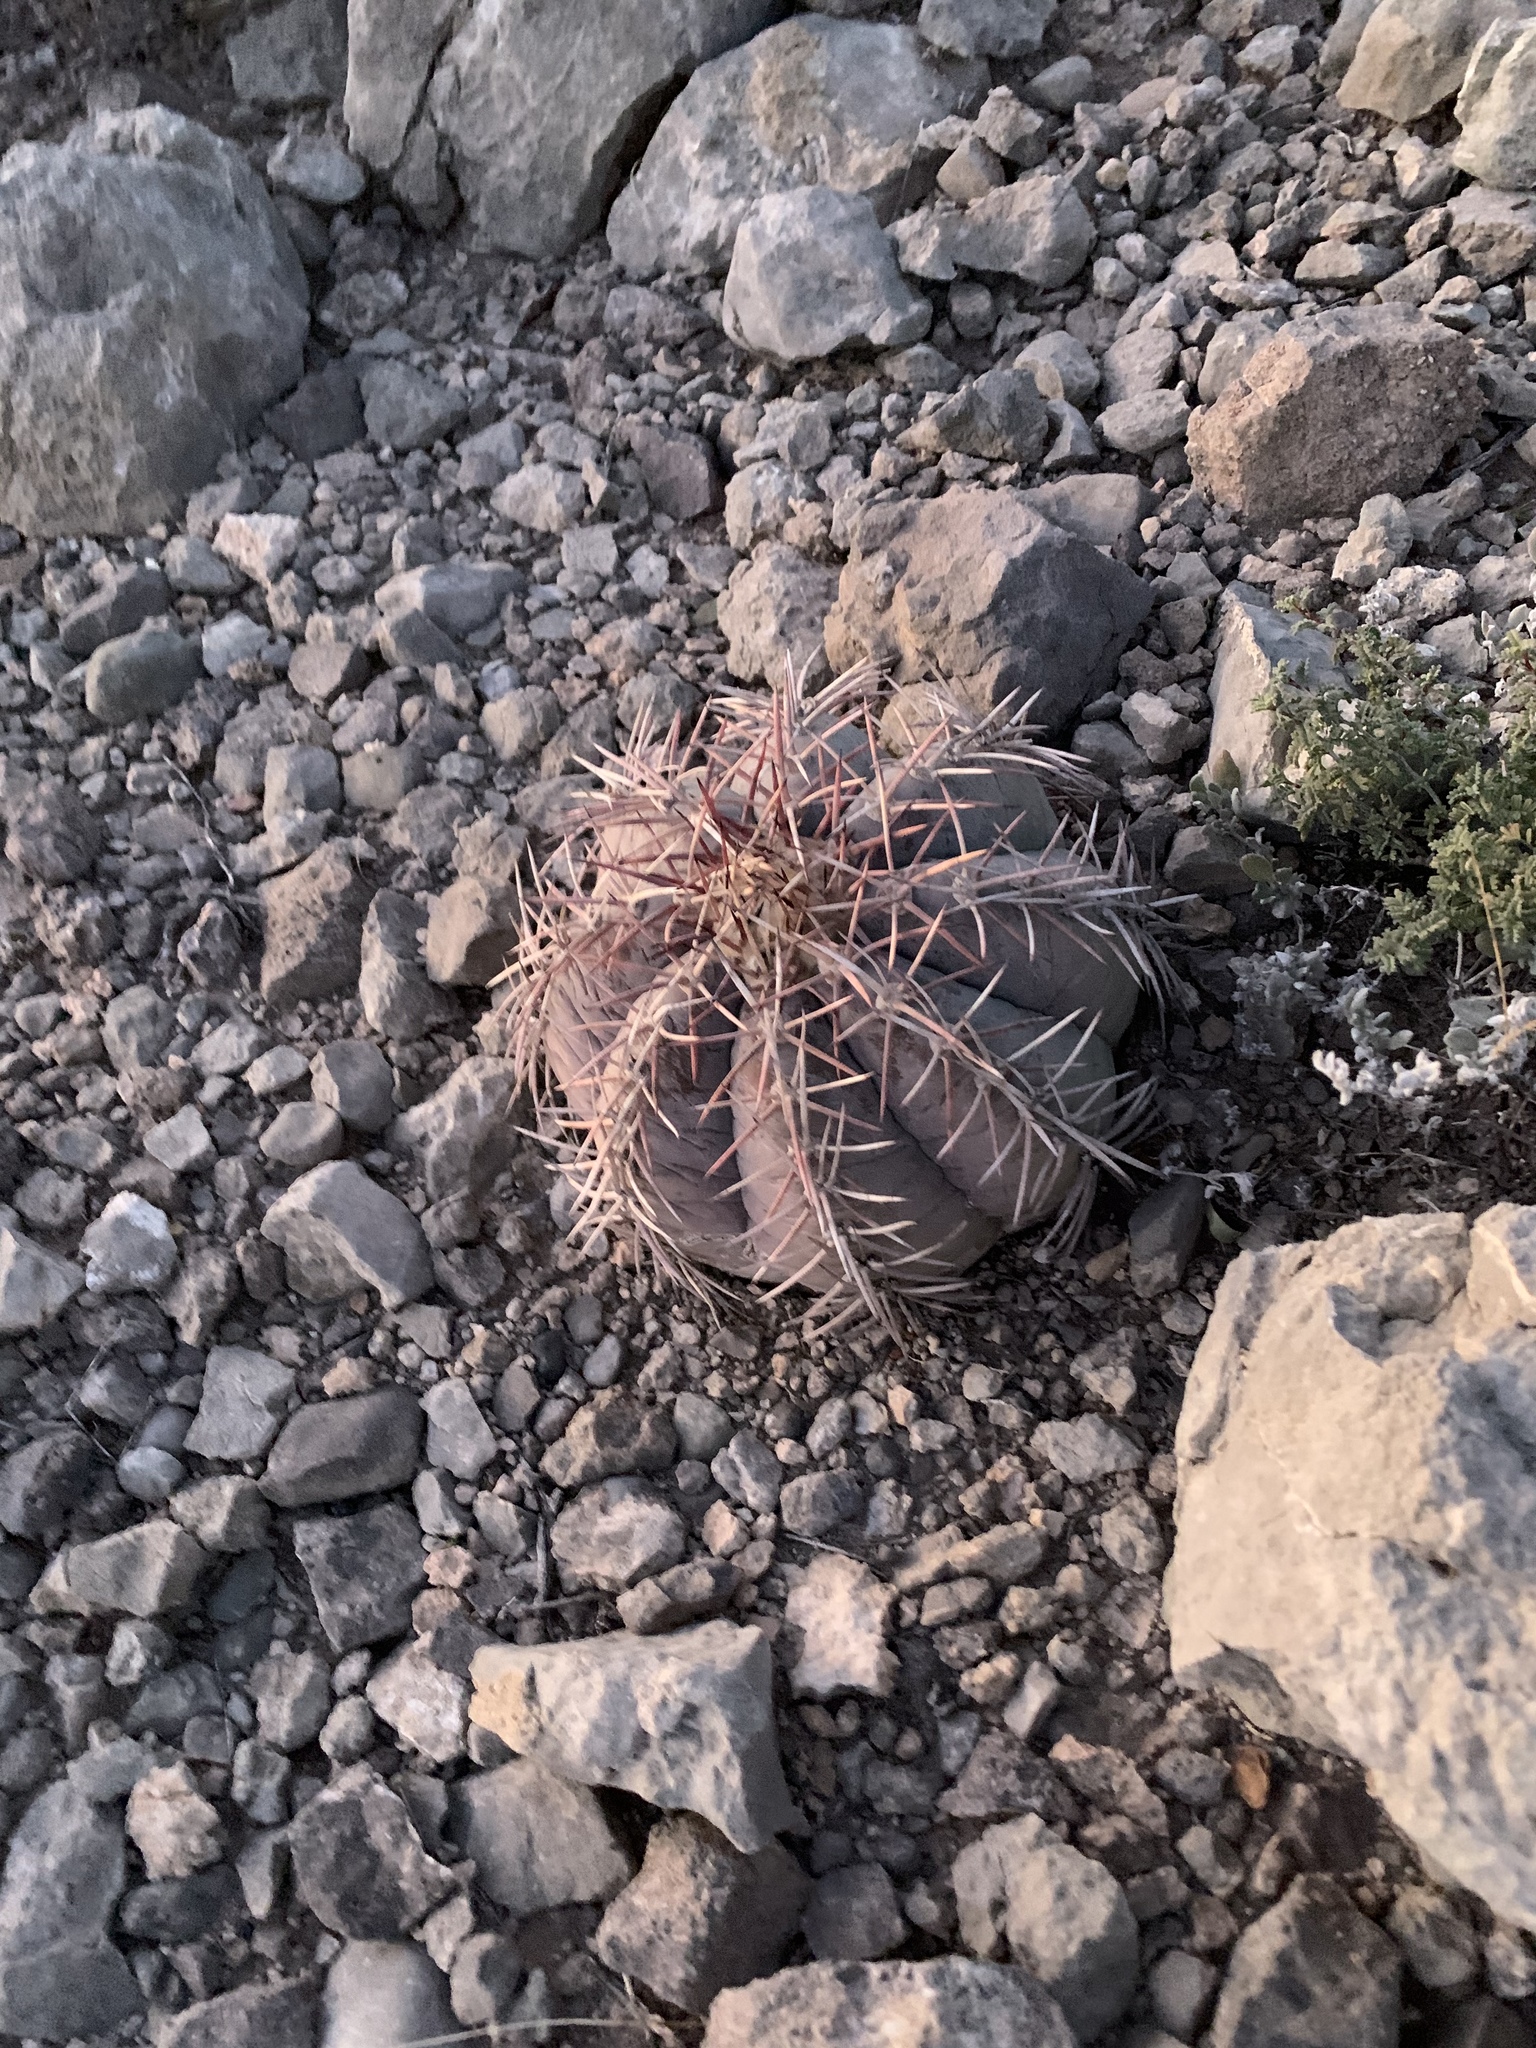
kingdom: Plantae
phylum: Tracheophyta
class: Magnoliopsida
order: Caryophyllales
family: Cactaceae
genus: Echinocactus
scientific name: Echinocactus horizonthalonius
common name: Devilshead
